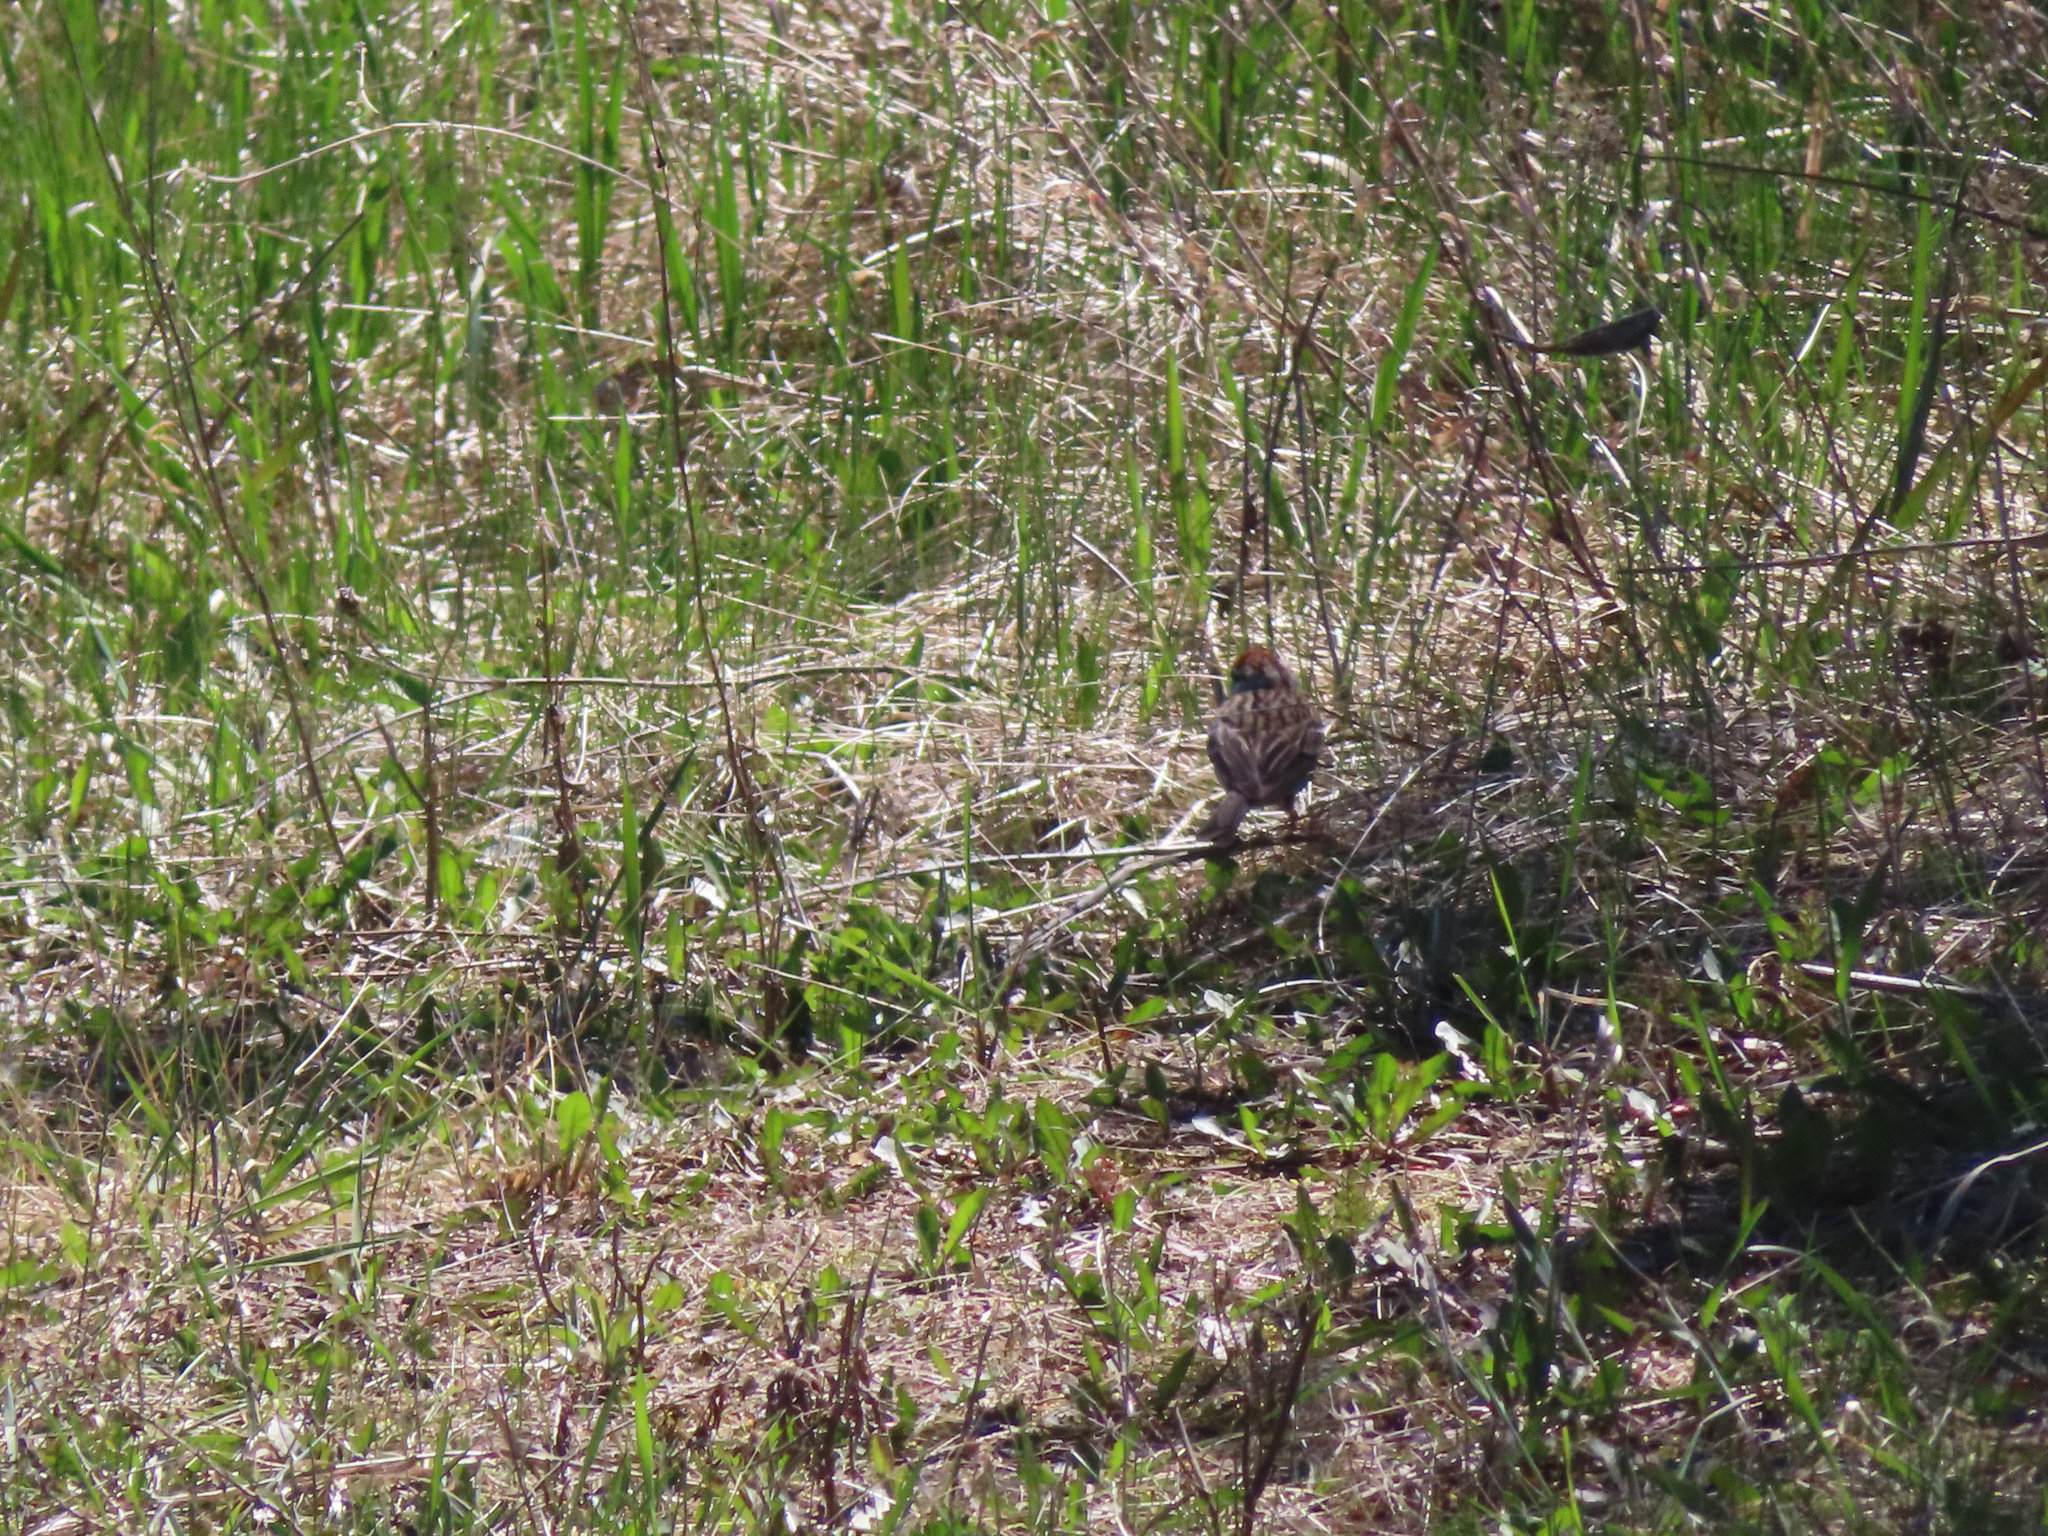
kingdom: Animalia
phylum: Chordata
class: Aves
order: Passeriformes
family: Passerellidae
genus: Spizella
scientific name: Spizella passerina
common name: Chipping sparrow
